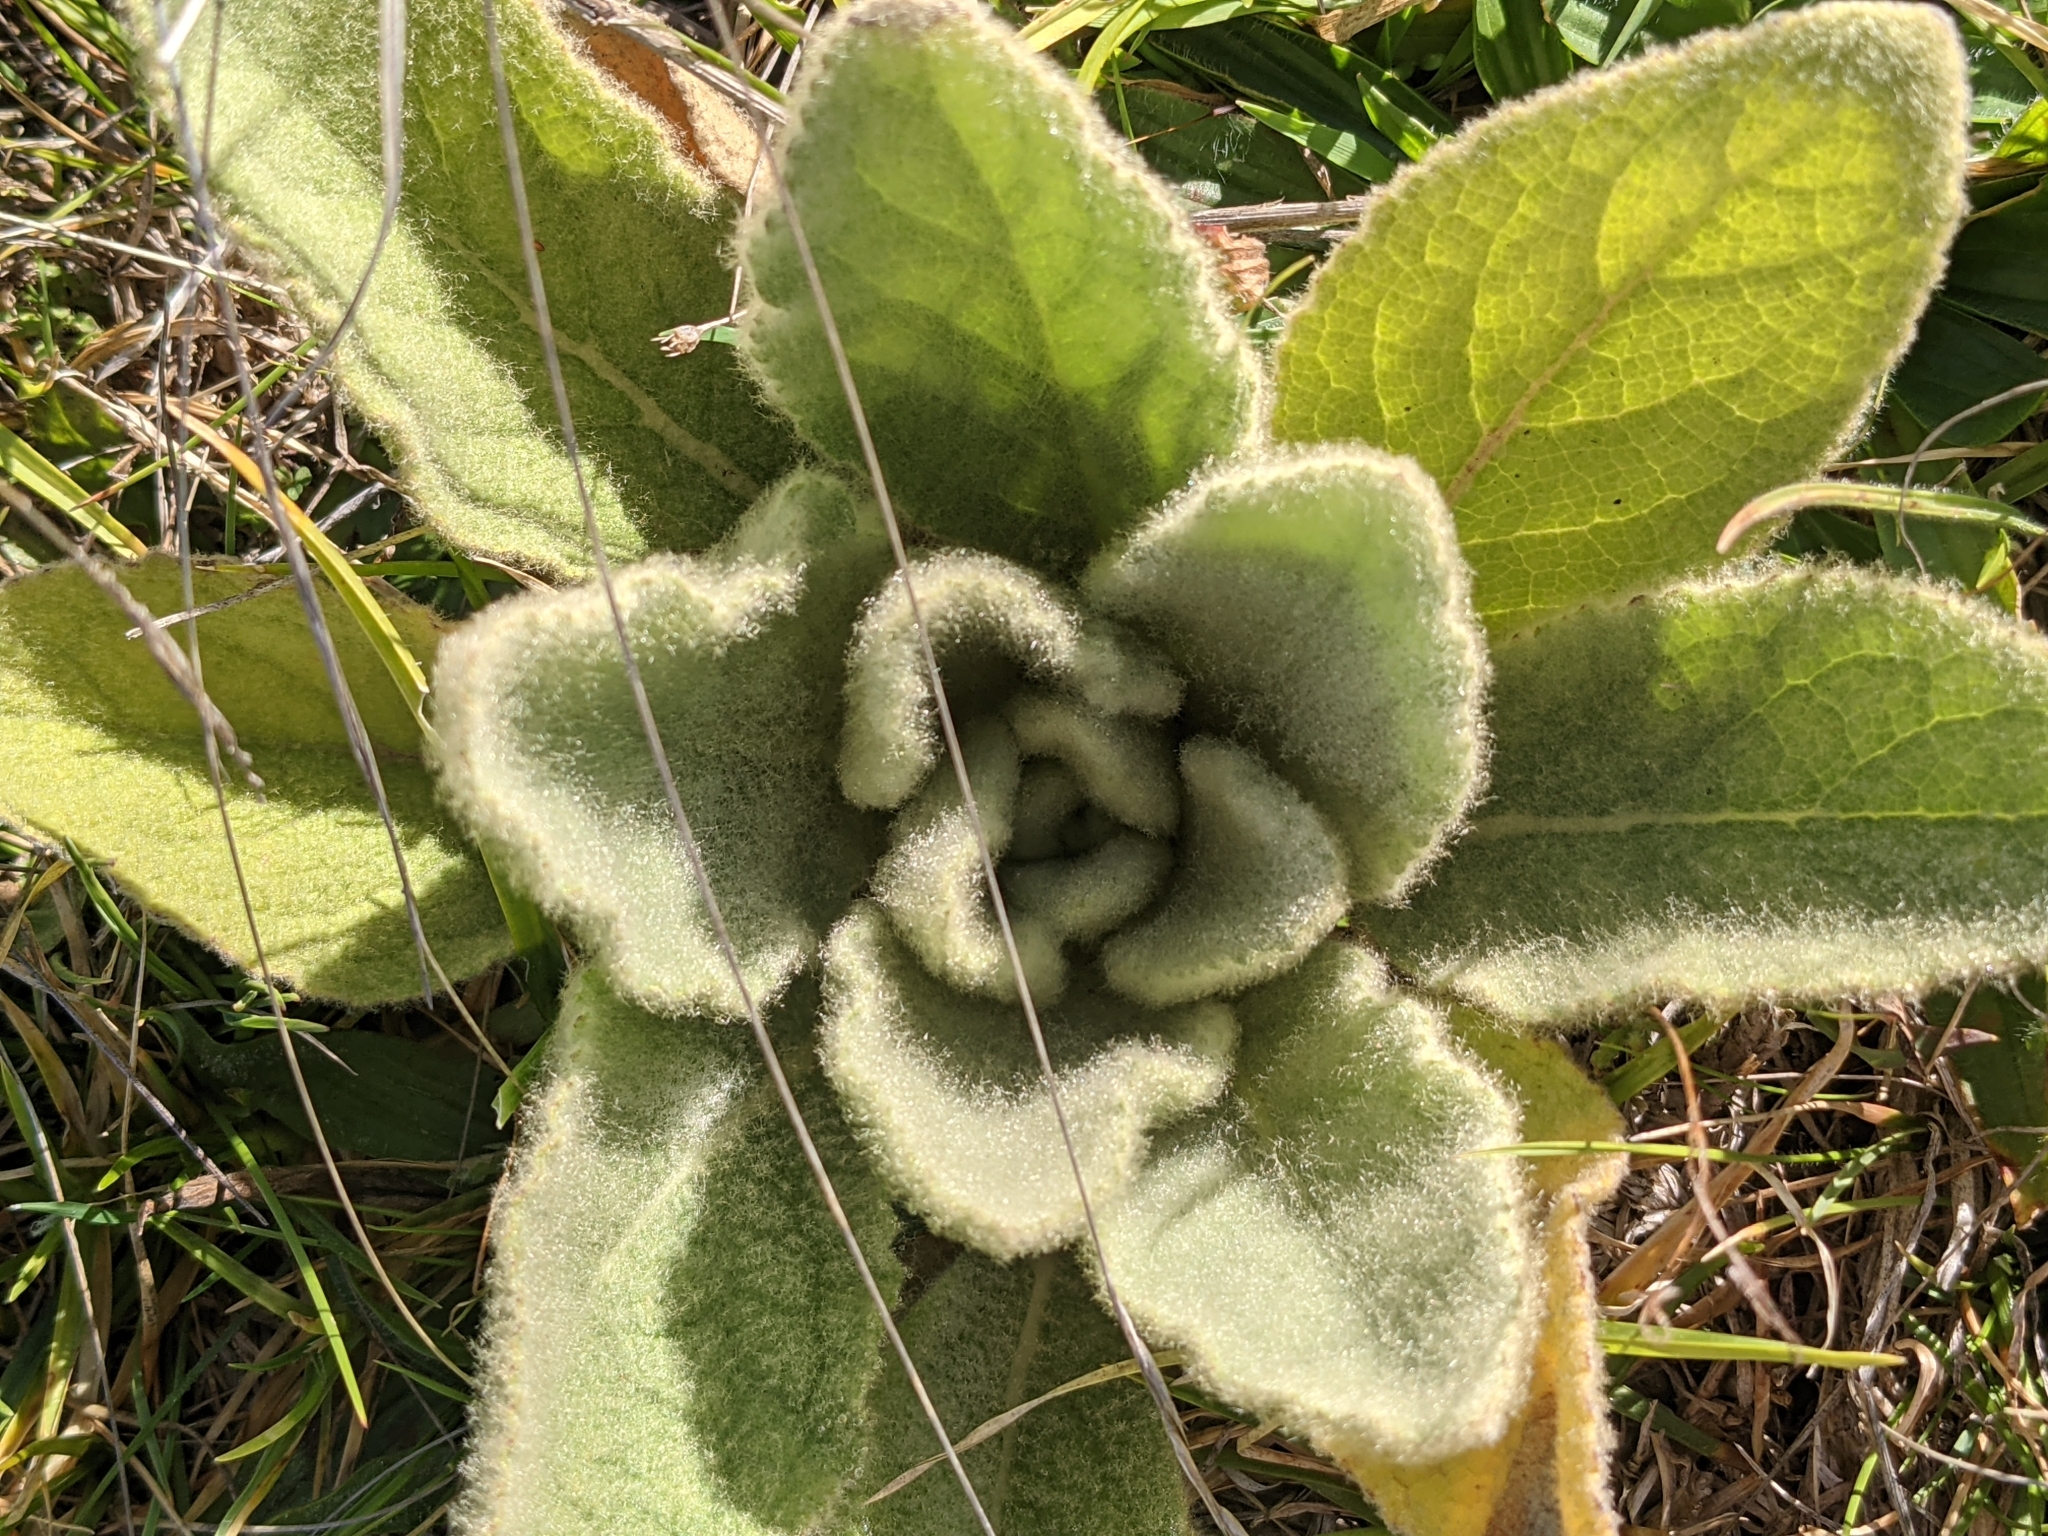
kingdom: Plantae
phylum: Tracheophyta
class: Magnoliopsida
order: Lamiales
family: Scrophulariaceae
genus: Verbascum
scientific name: Verbascum thapsus
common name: Common mullein
